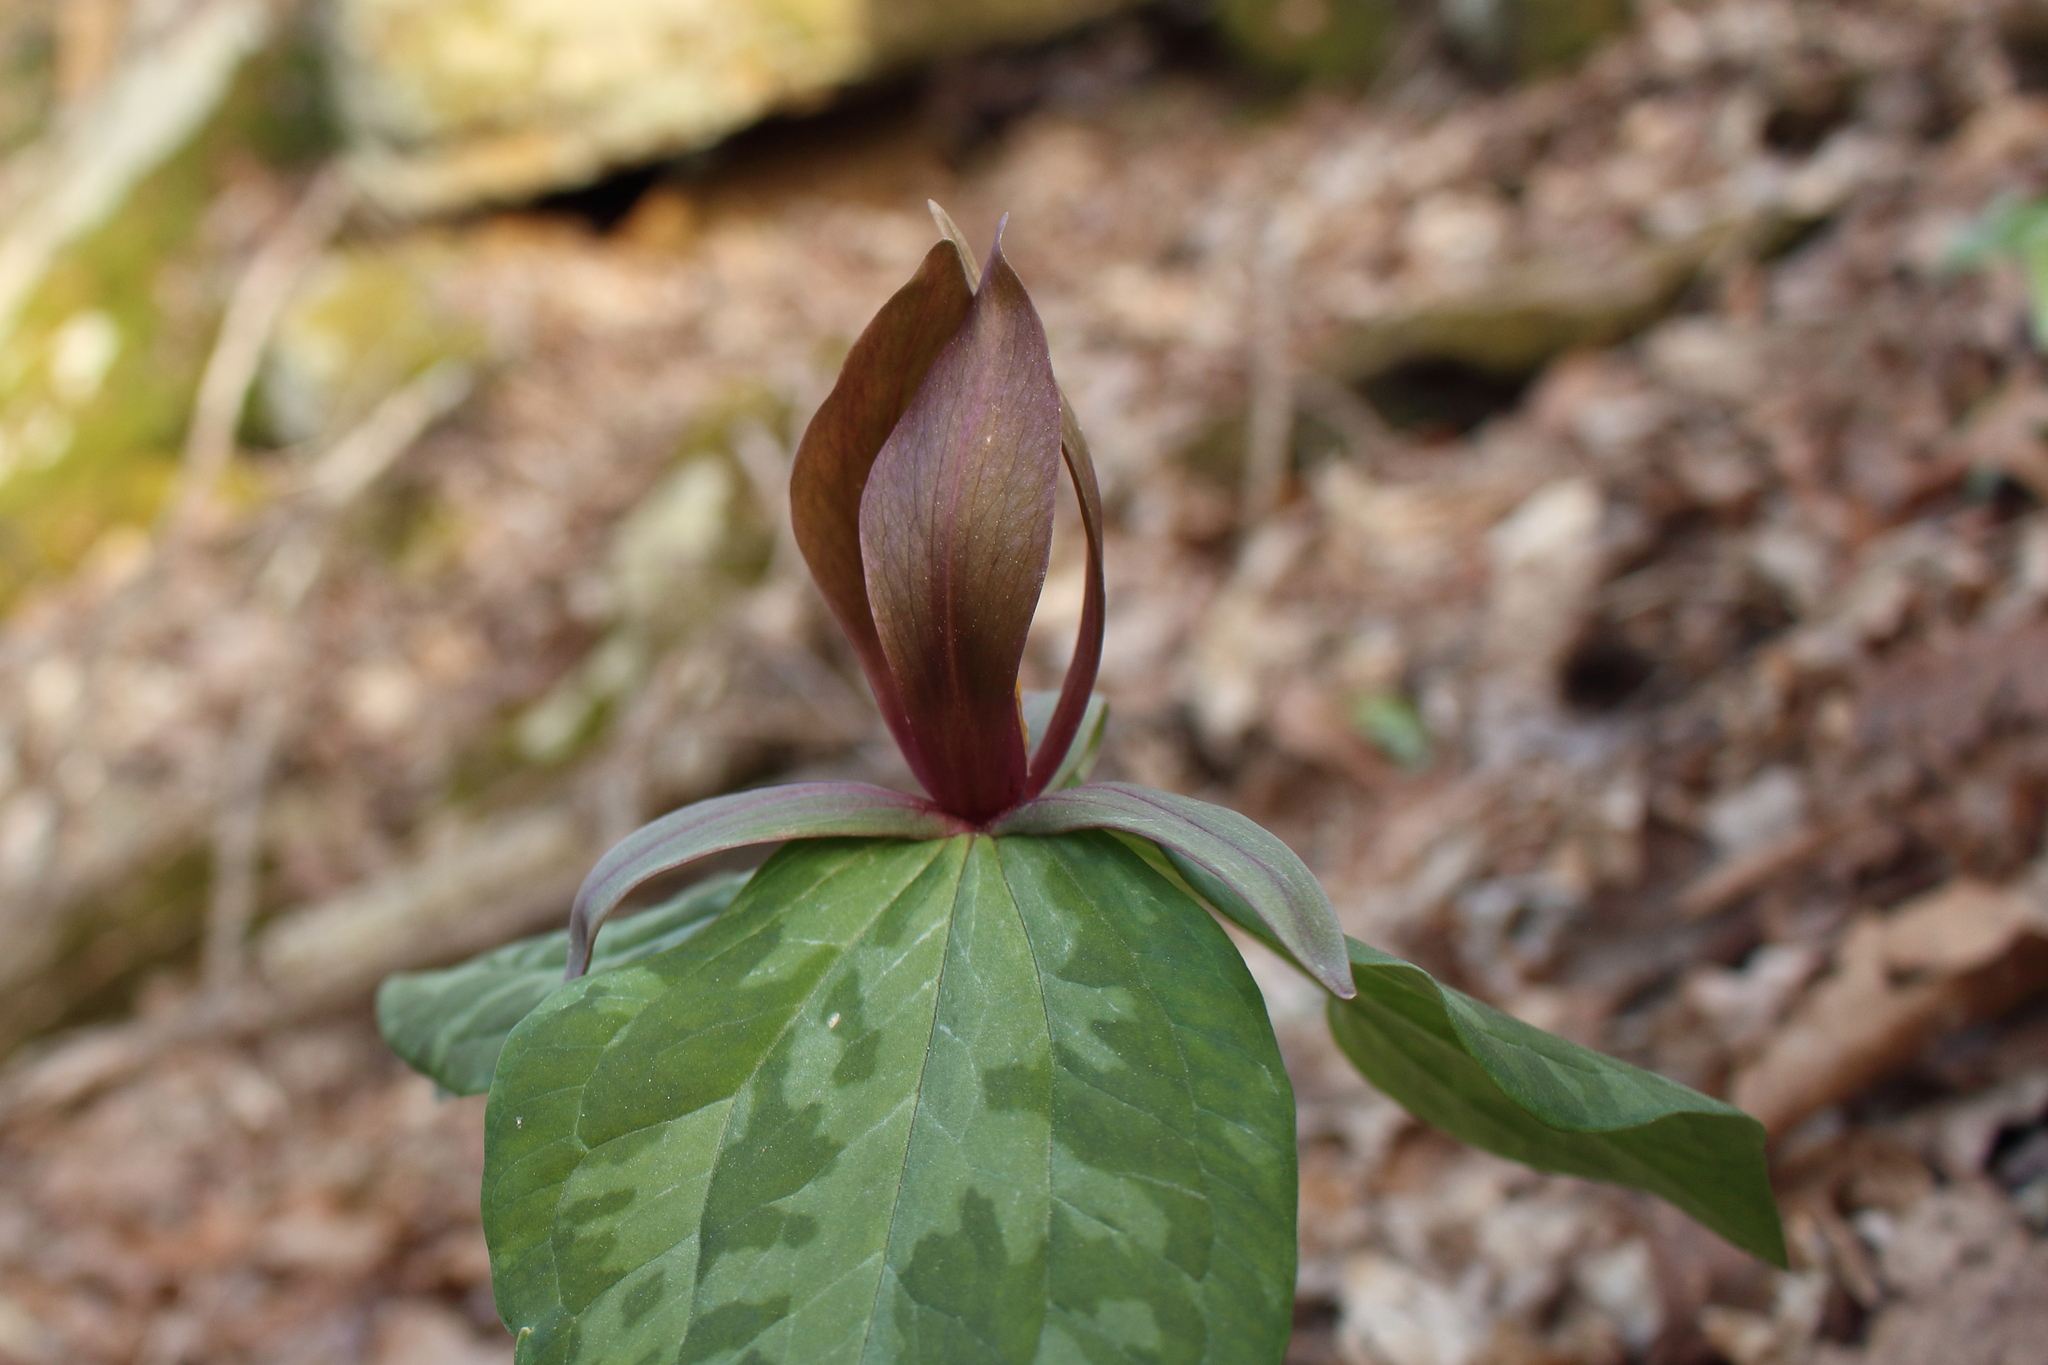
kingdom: Plantae
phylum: Tracheophyta
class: Liliopsida
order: Liliales
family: Melanthiaceae
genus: Trillium
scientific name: Trillium cuneatum
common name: Cuneate trillium
